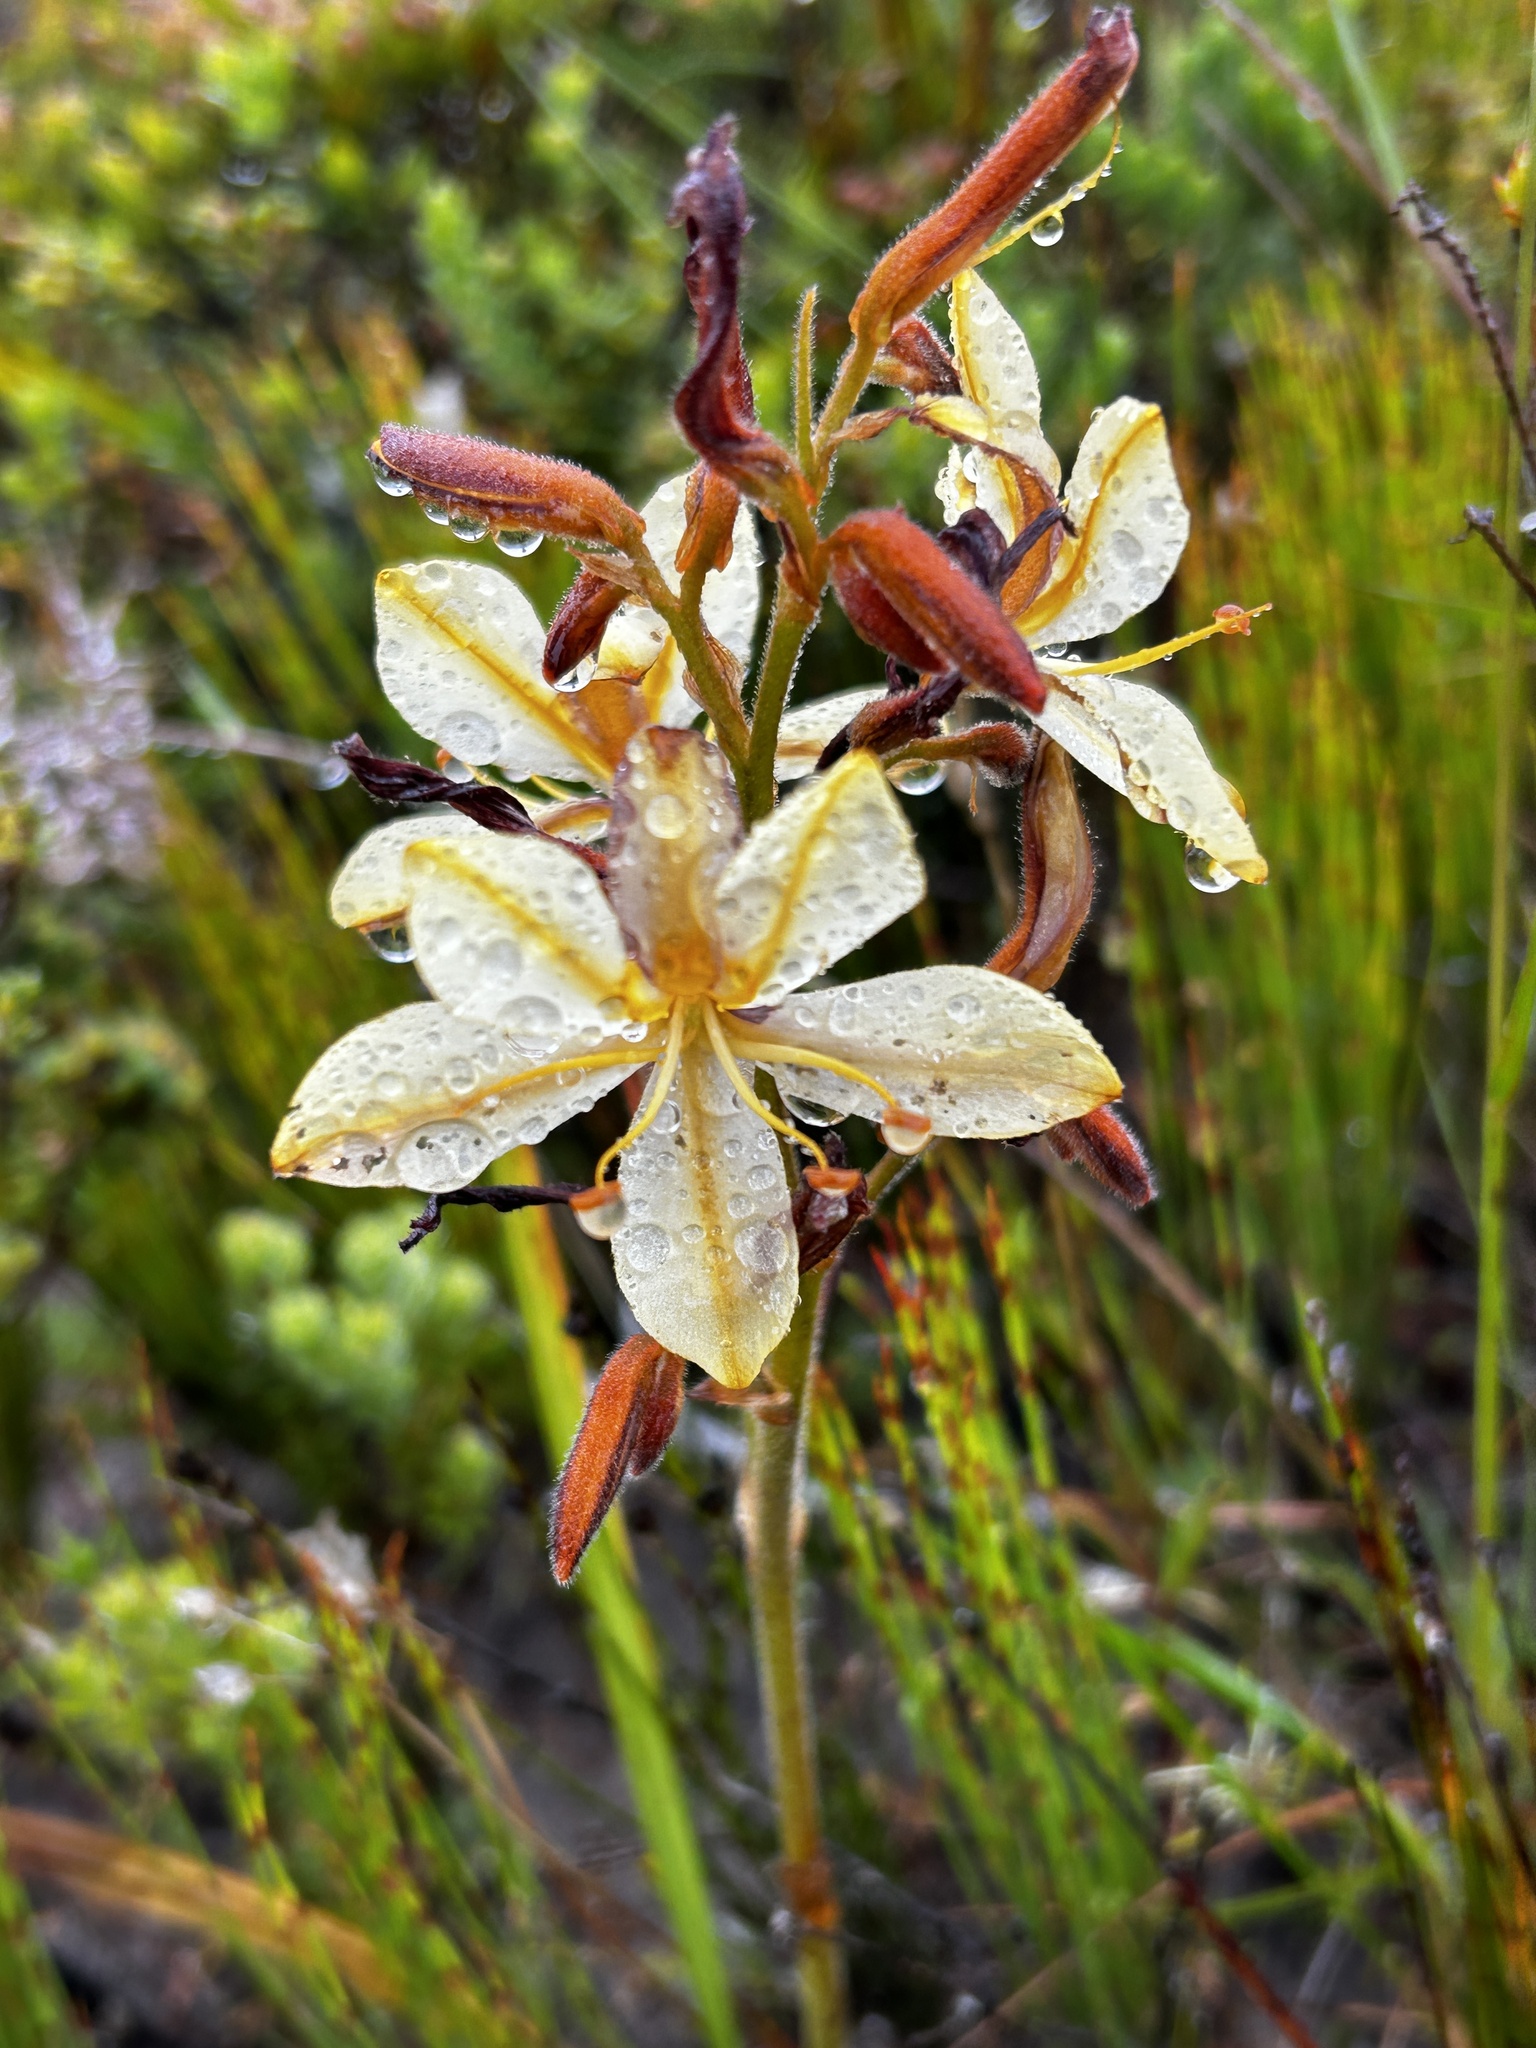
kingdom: Plantae
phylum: Tracheophyta
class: Liliopsida
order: Commelinales
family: Haemodoraceae
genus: Wachendorfia
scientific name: Wachendorfia paniculata
